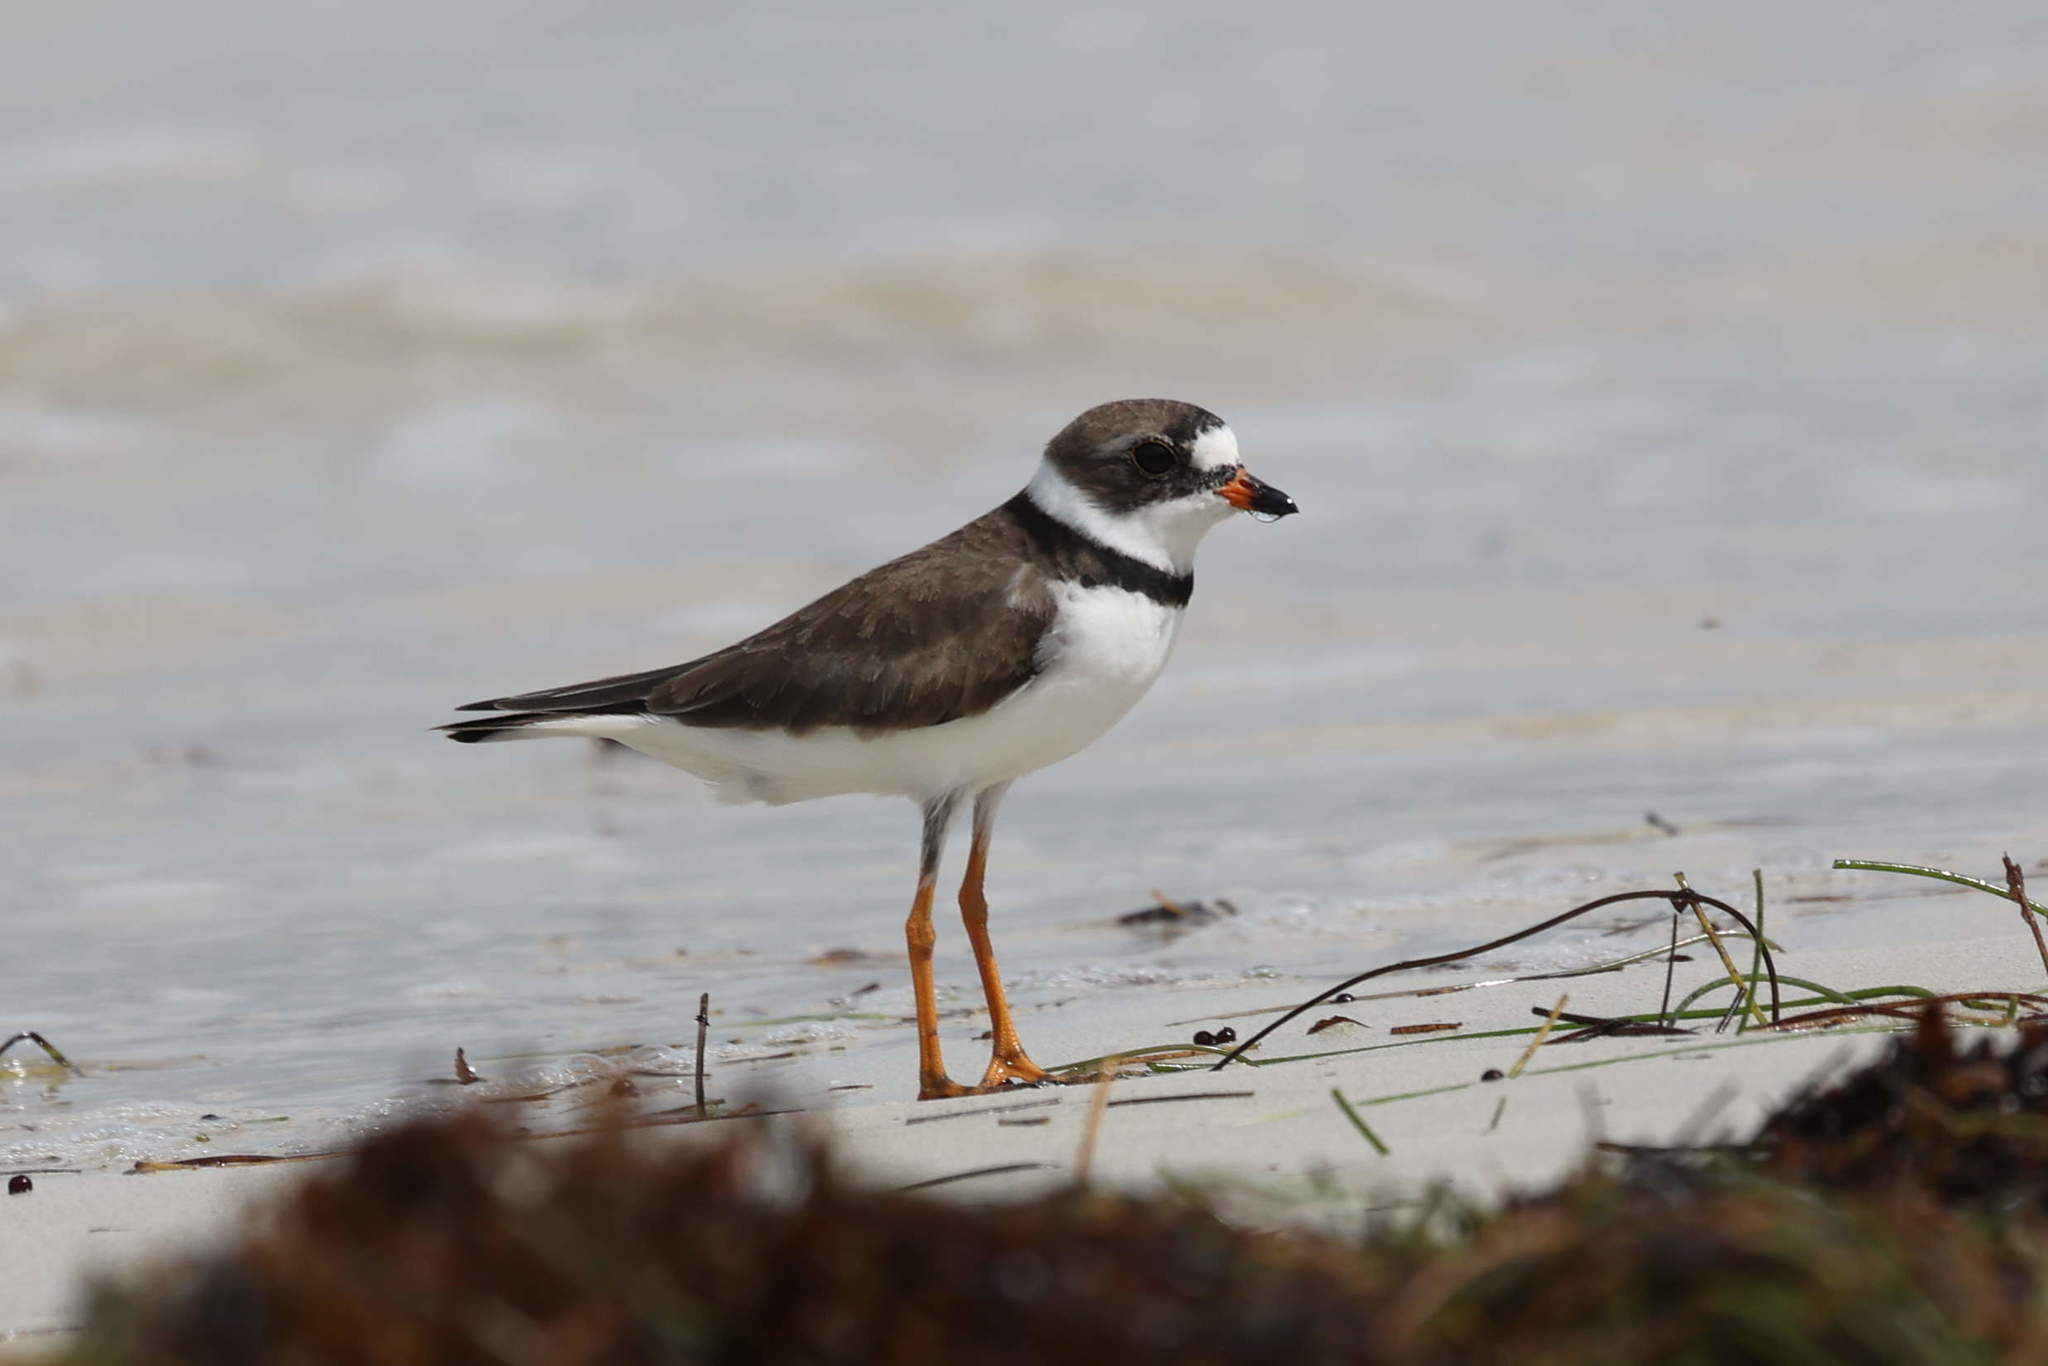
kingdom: Animalia
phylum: Chordata
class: Aves
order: Charadriiformes
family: Charadriidae
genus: Charadrius
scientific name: Charadrius semipalmatus
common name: Semipalmated plover
